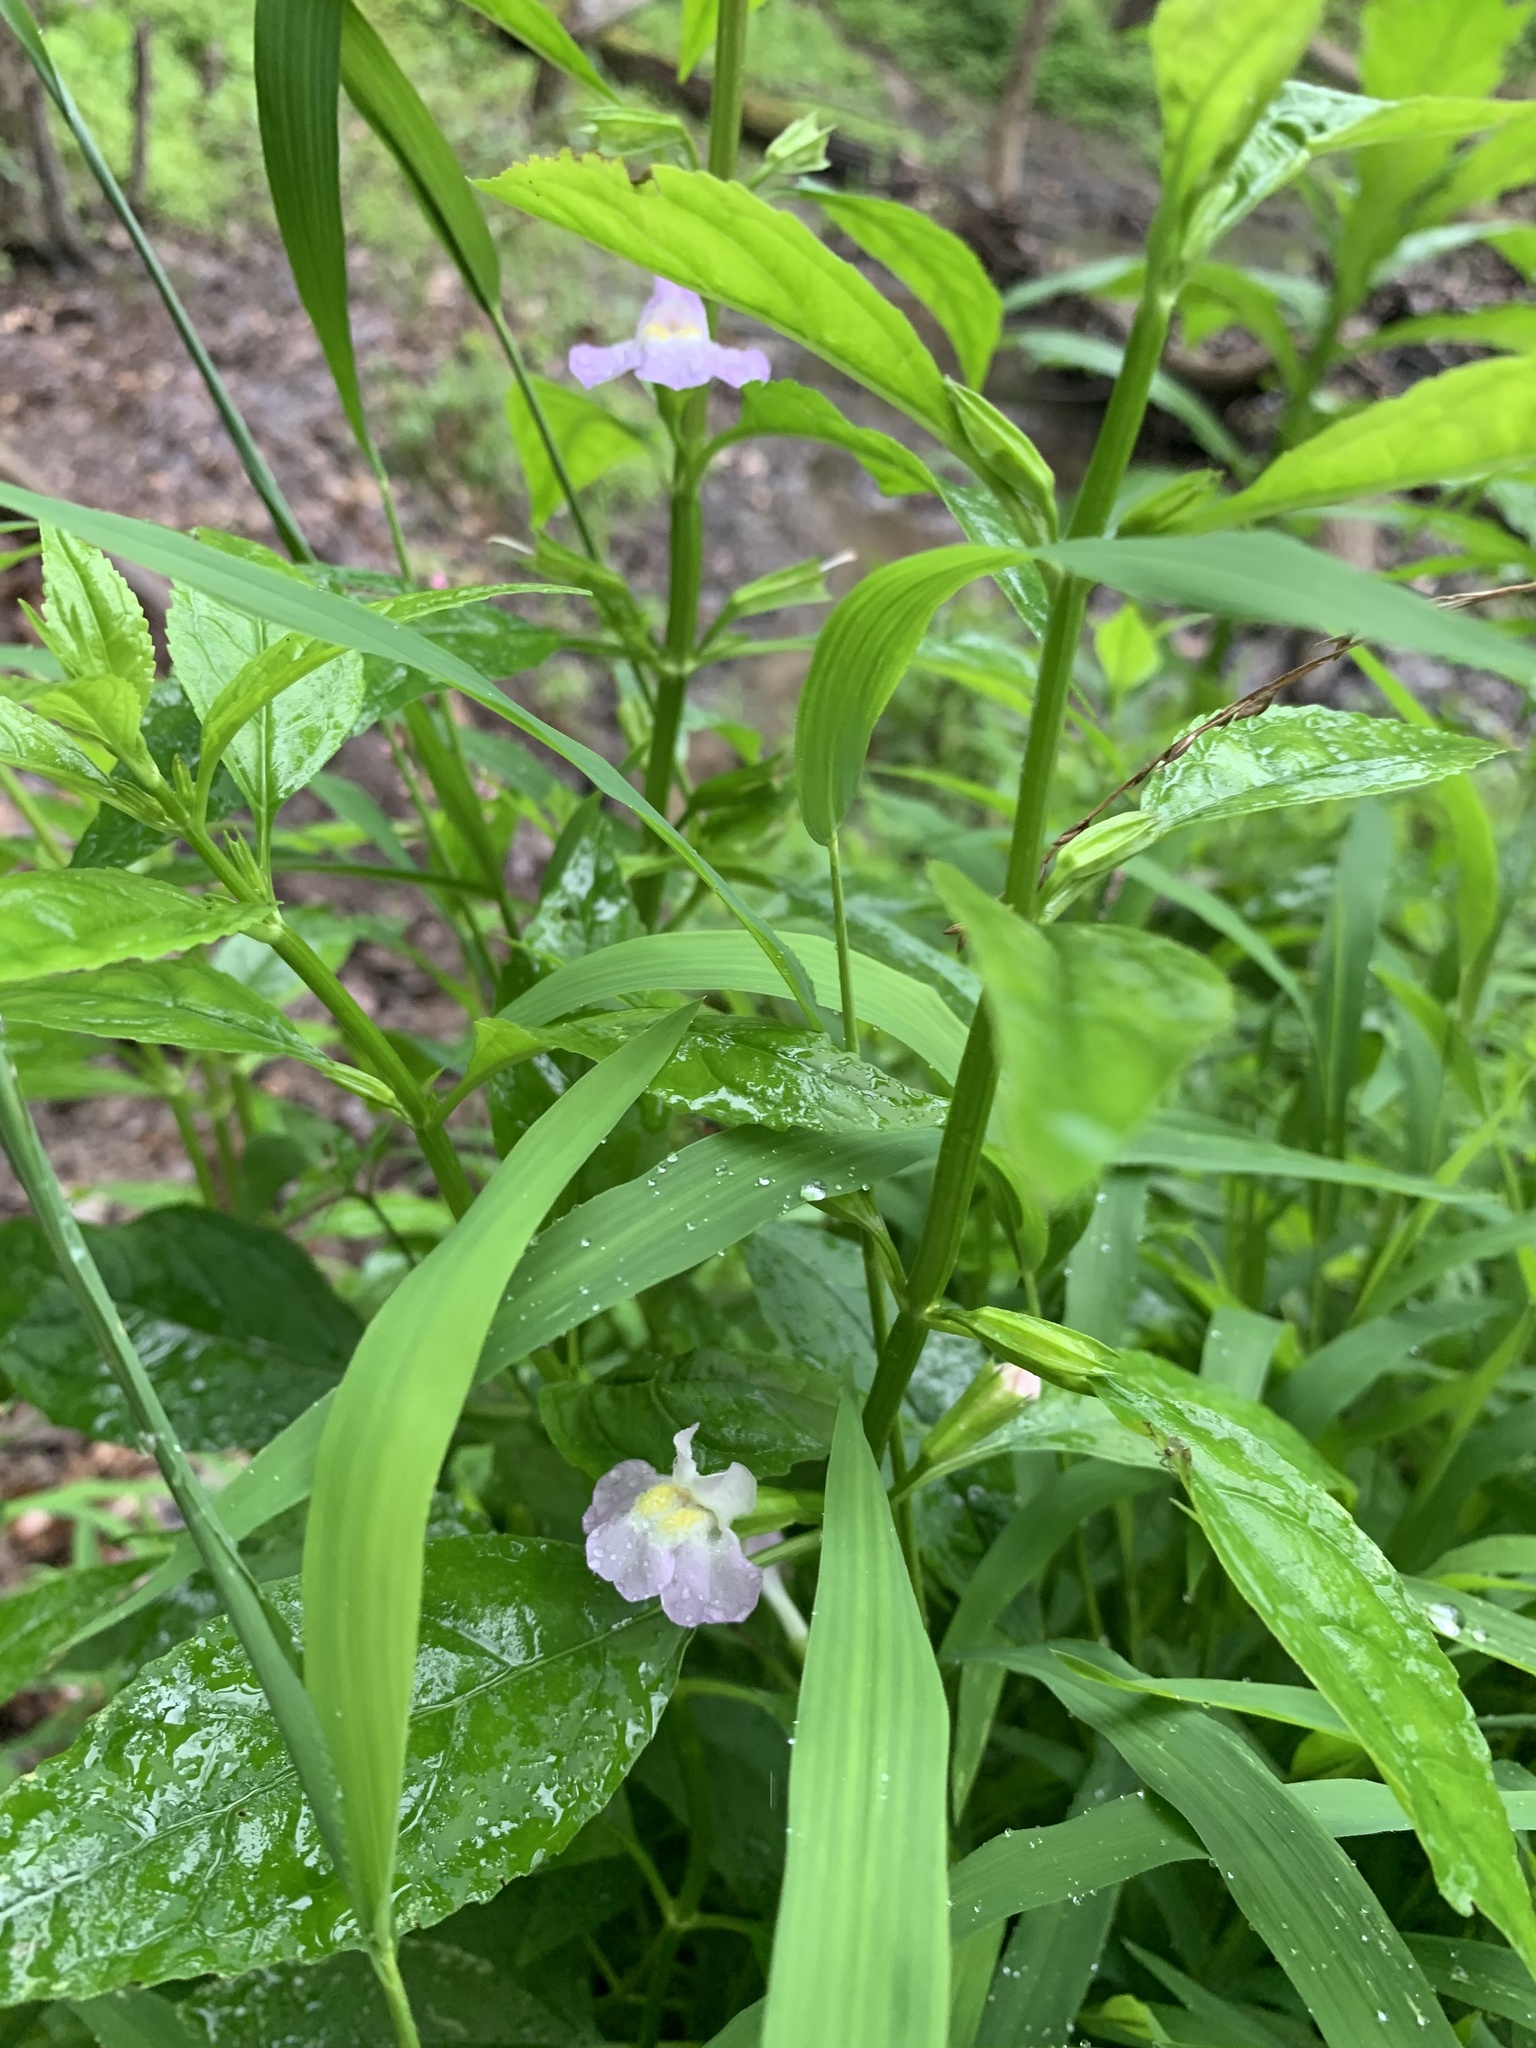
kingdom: Plantae
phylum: Tracheophyta
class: Magnoliopsida
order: Lamiales
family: Phrymaceae
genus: Mimulus
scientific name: Mimulus alatus
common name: Sharp-wing monkey-flower
